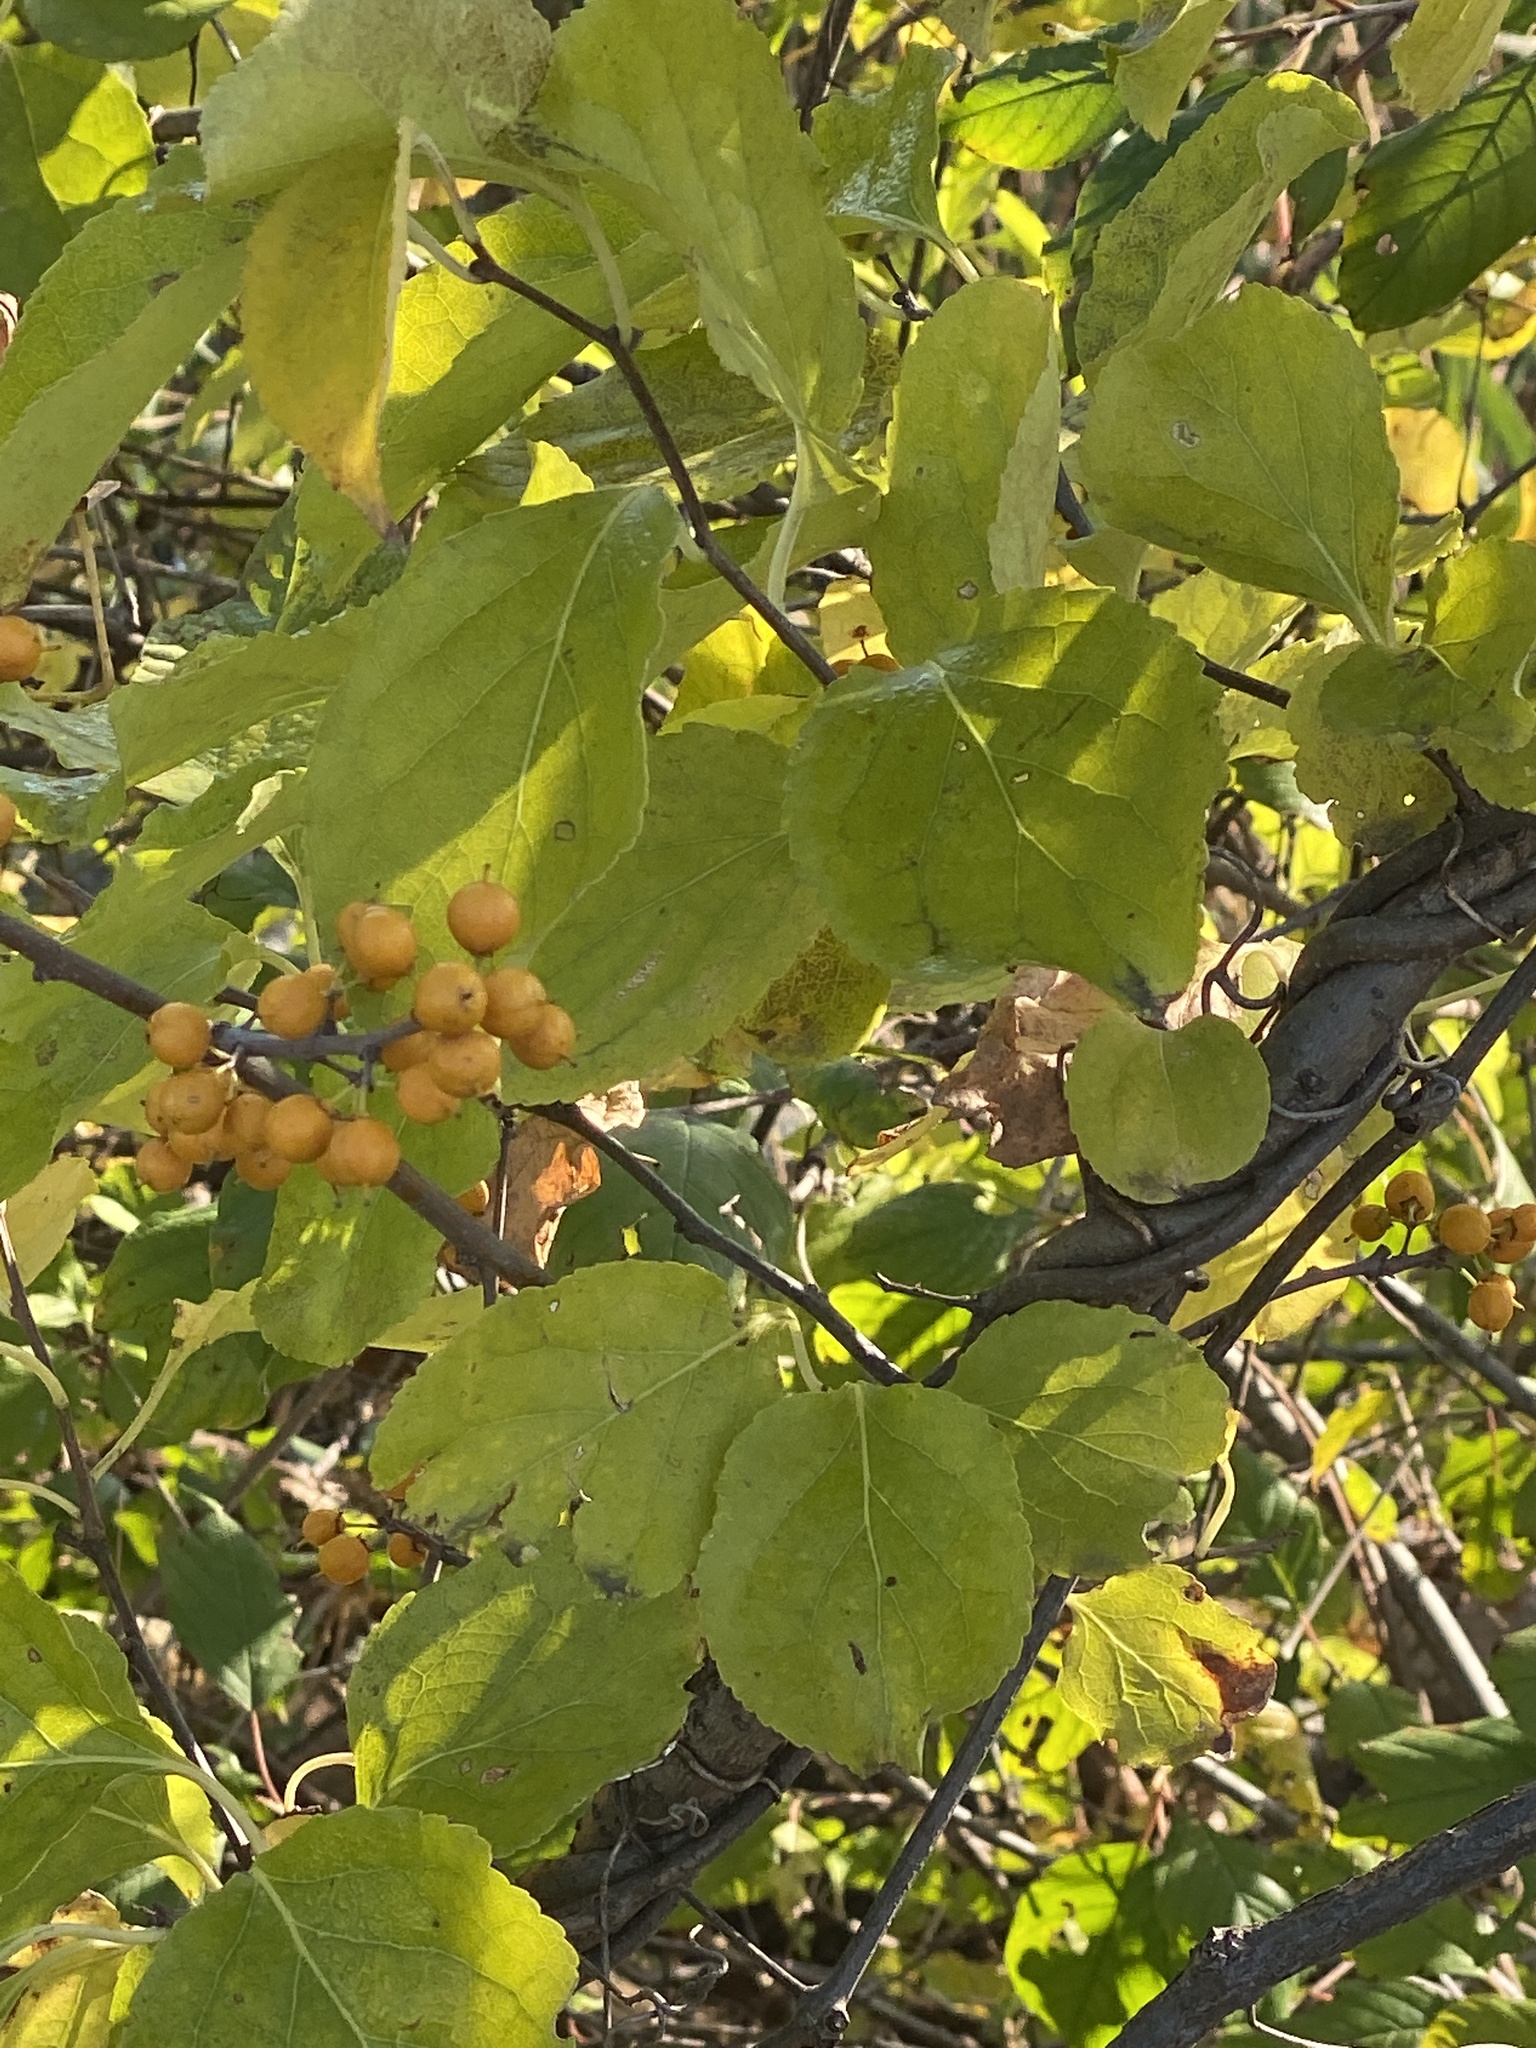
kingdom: Plantae
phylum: Tracheophyta
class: Magnoliopsida
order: Celastrales
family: Celastraceae
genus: Celastrus
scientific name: Celastrus orbiculatus
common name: Oriental bittersweet
